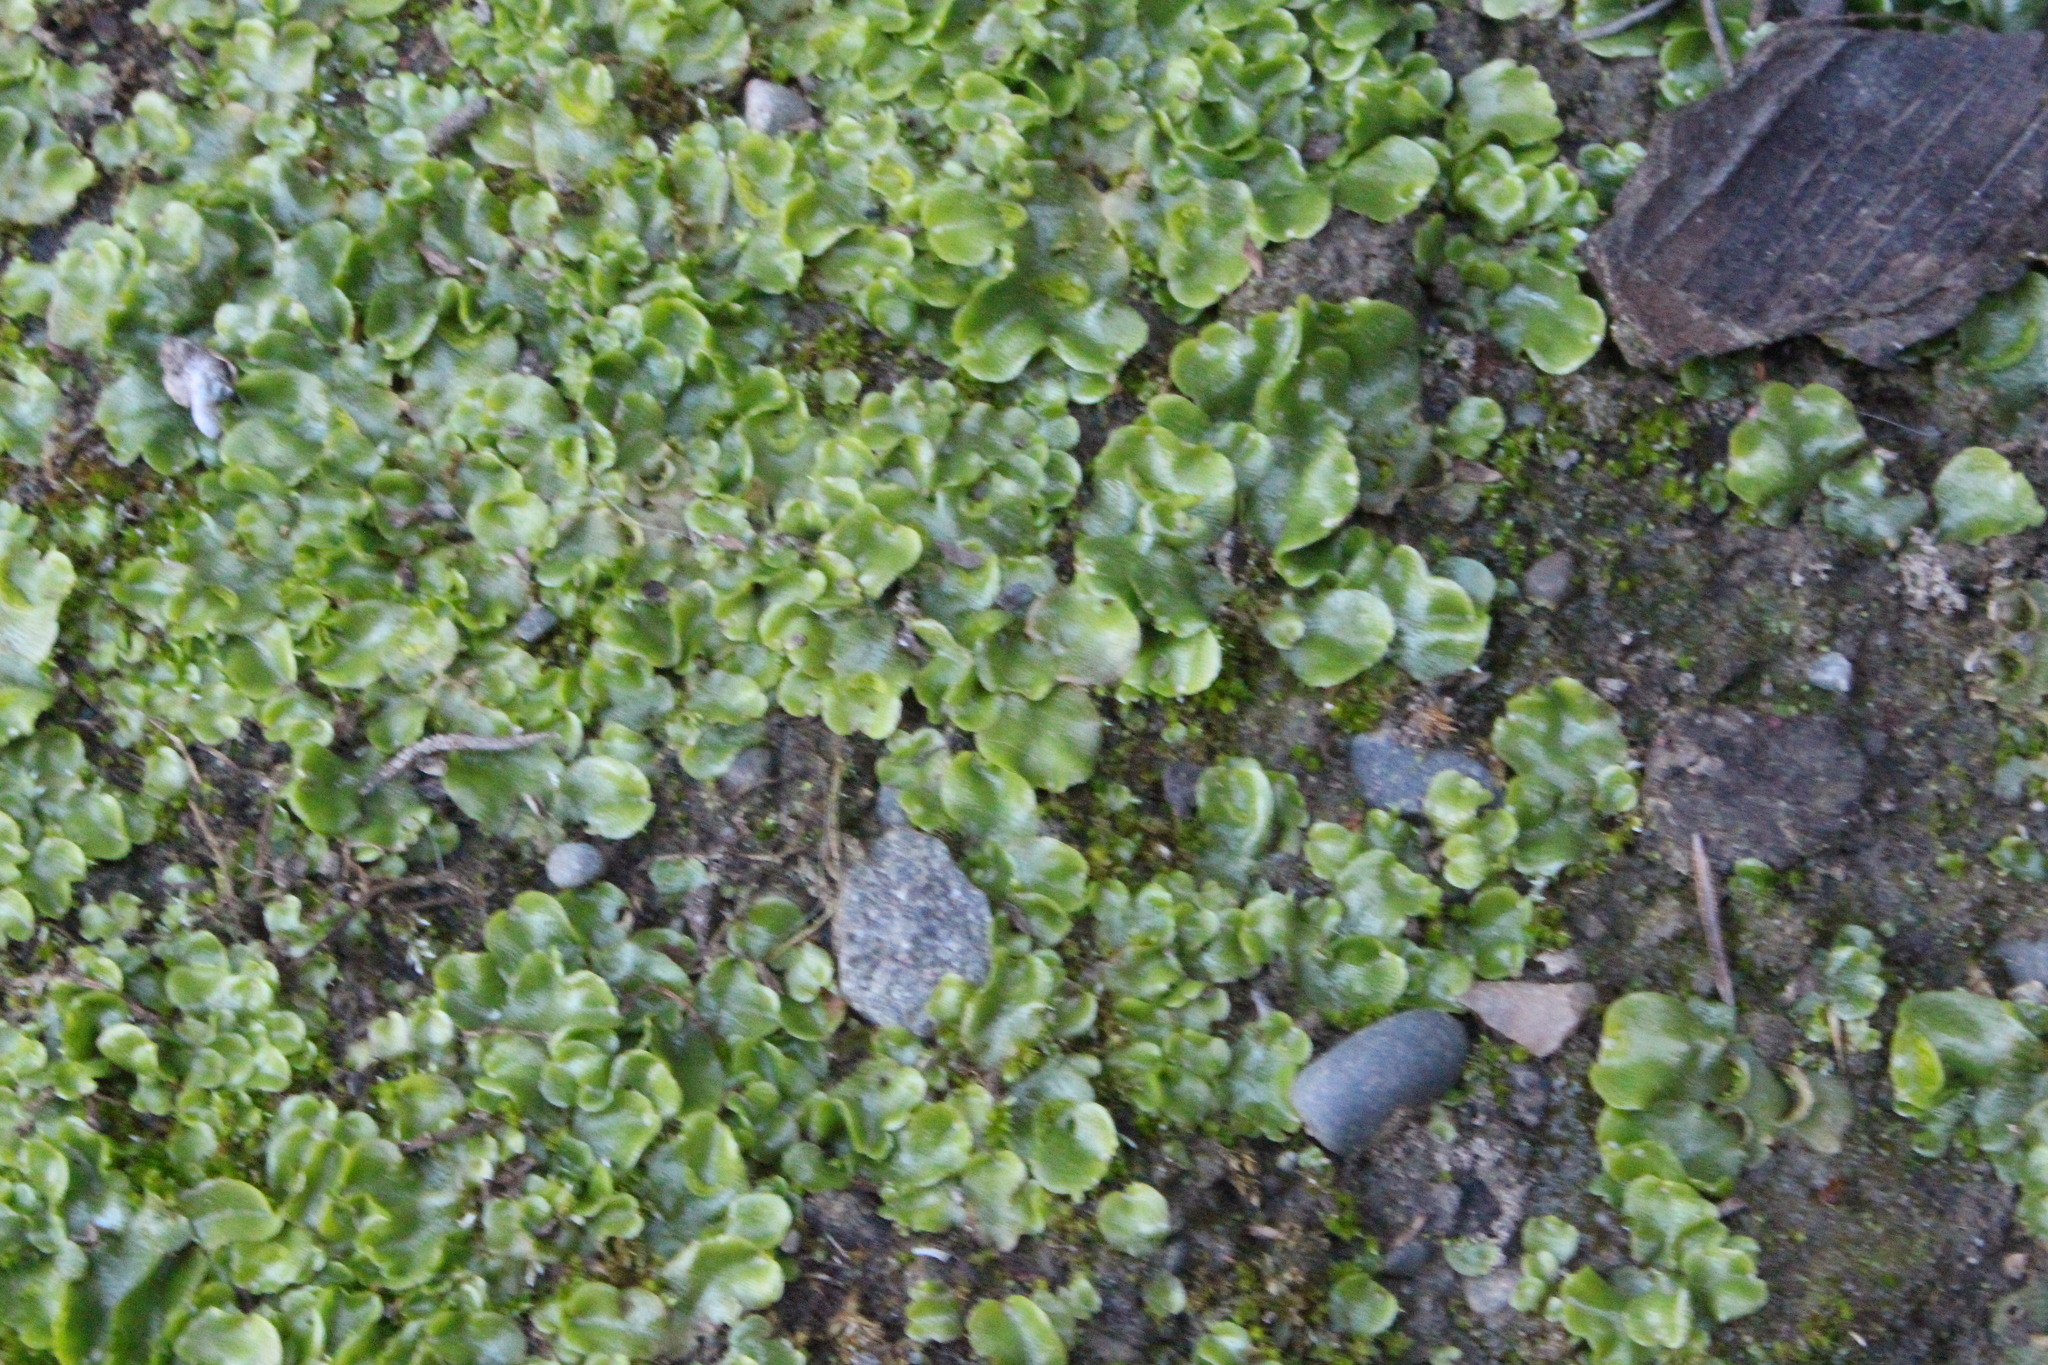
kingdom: Plantae
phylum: Marchantiophyta
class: Marchantiopsida
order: Lunulariales
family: Lunulariaceae
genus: Lunularia
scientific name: Lunularia cruciata
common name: Crescent-cup liverwort
